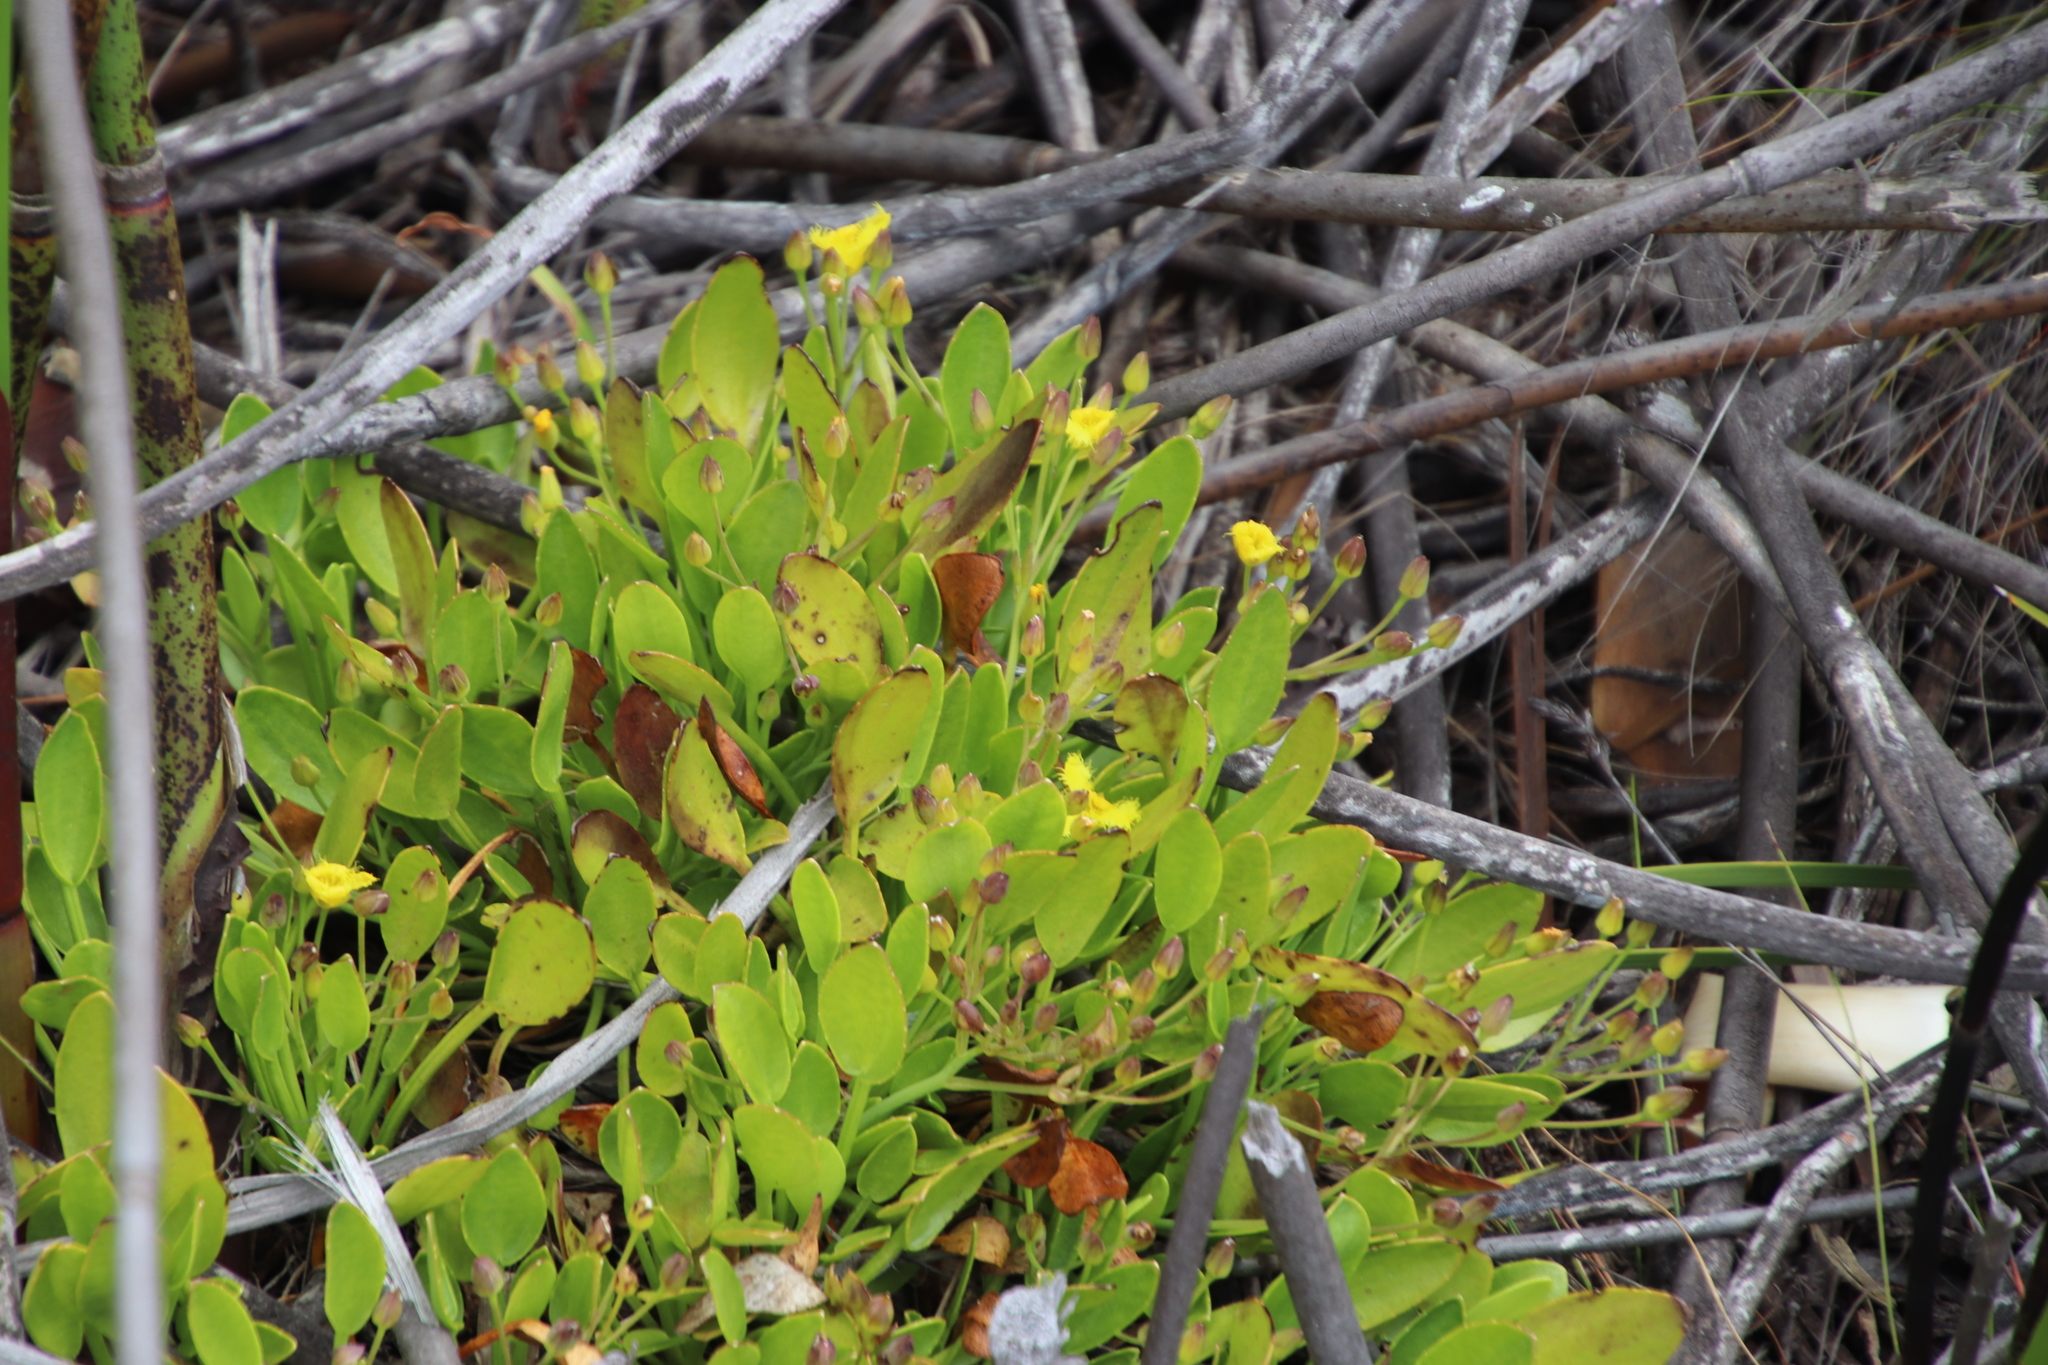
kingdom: Plantae
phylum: Tracheophyta
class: Magnoliopsida
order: Asterales
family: Menyanthaceae
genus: Villarsia
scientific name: Villarsia manningiana
